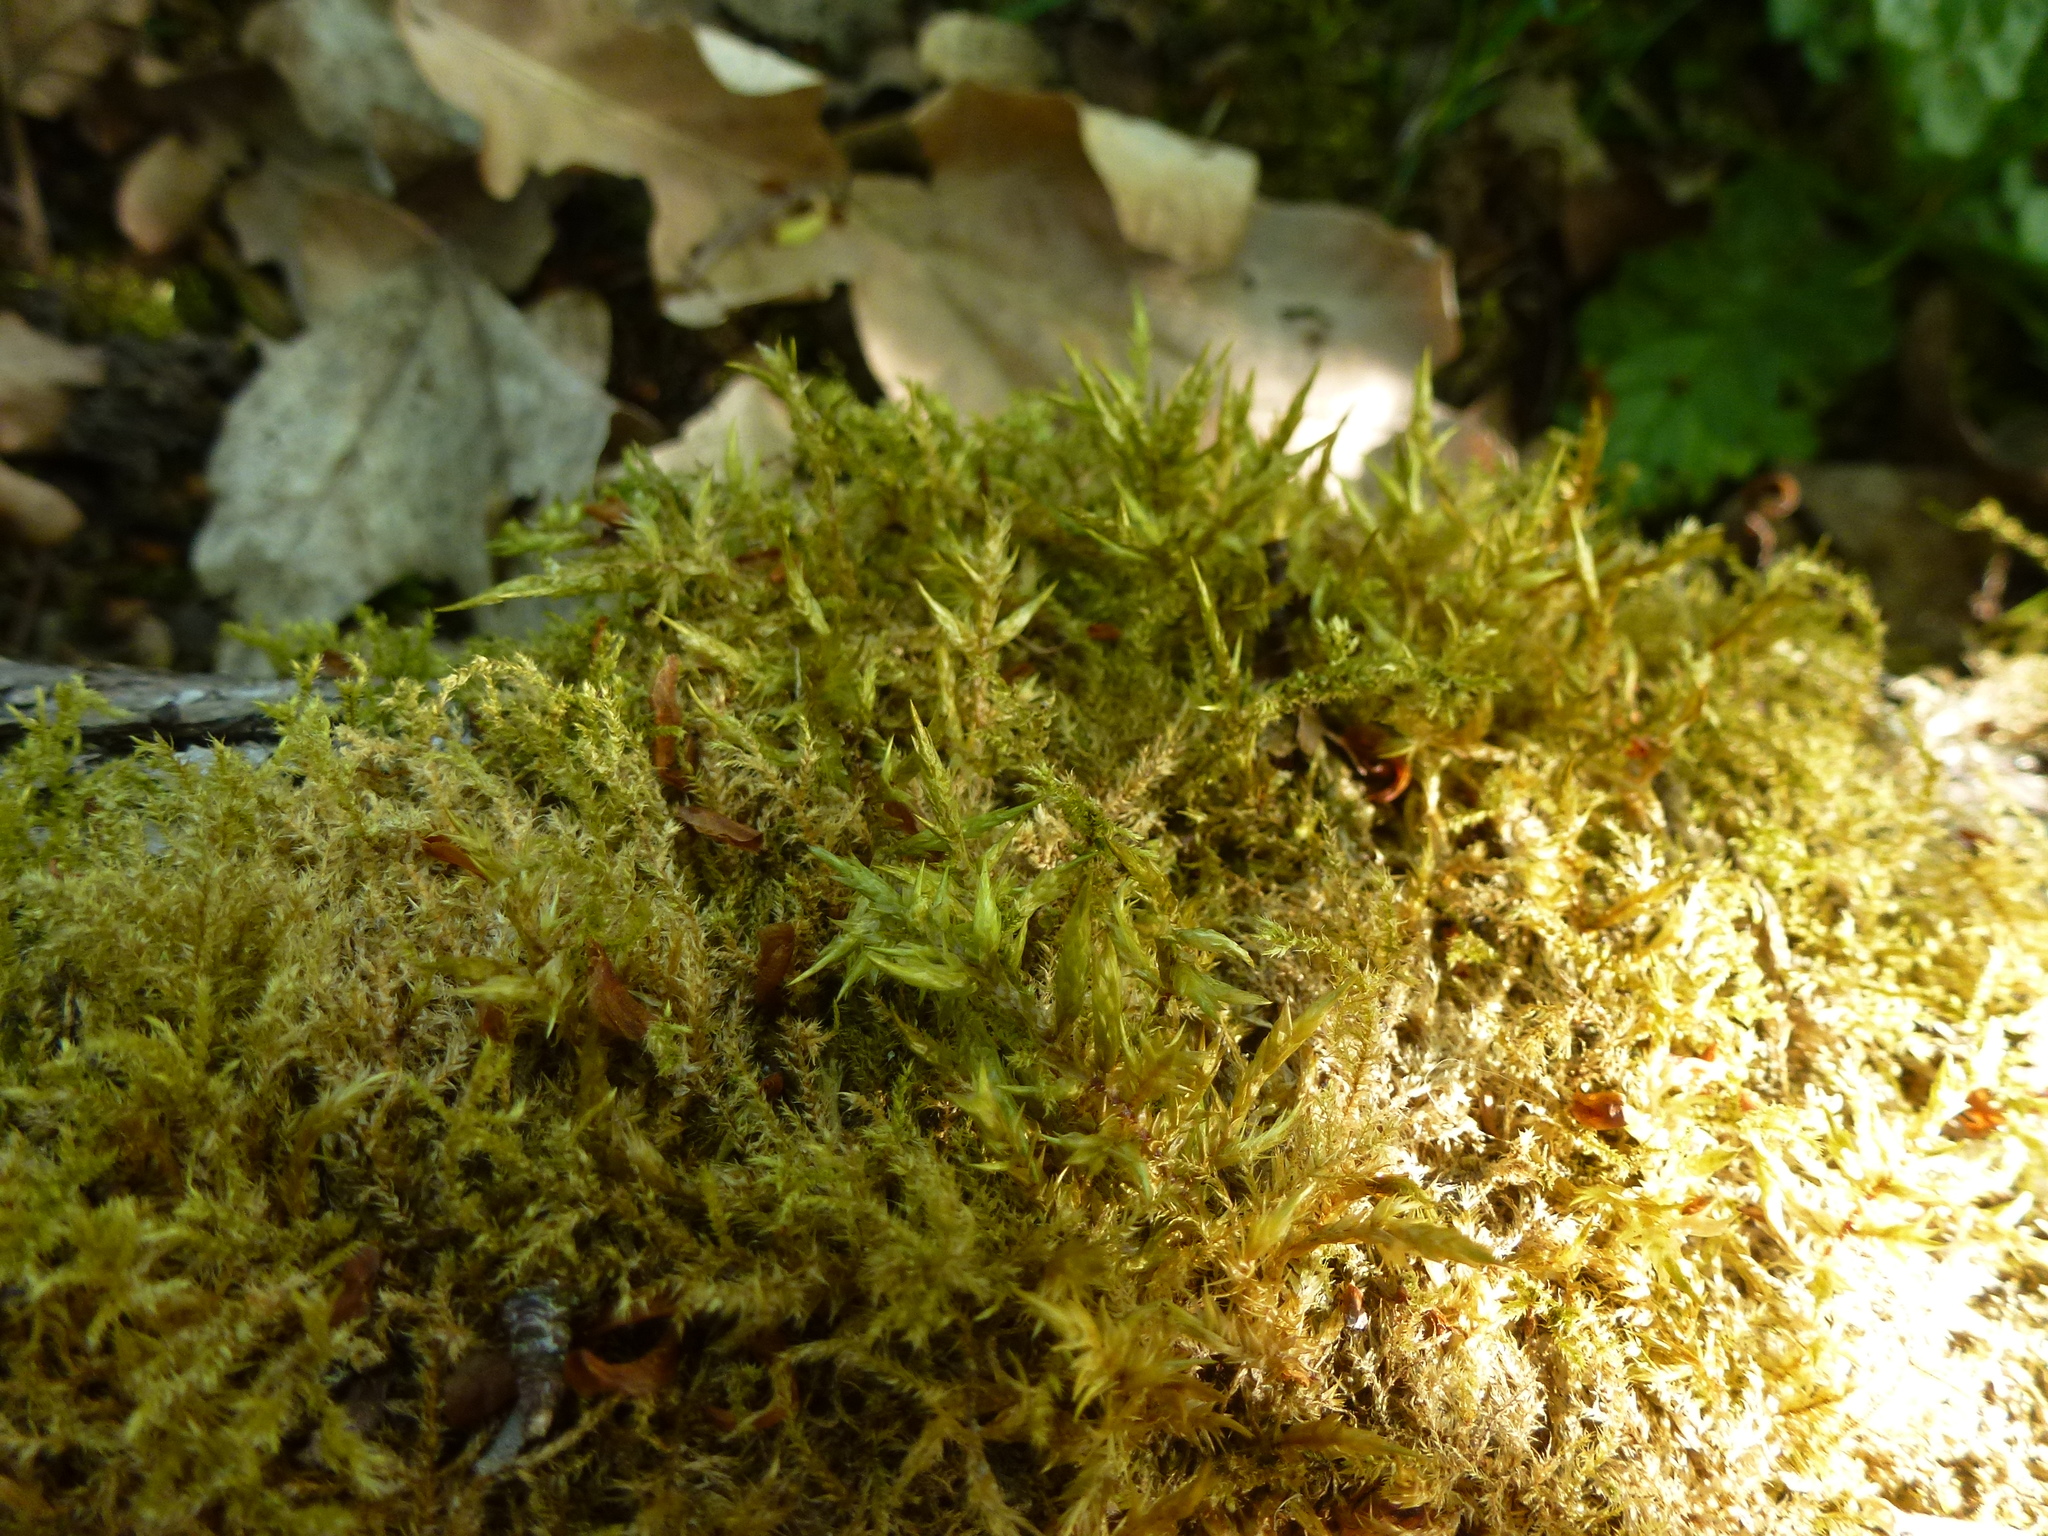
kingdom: Plantae
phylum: Bryophyta
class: Bryopsida
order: Hypnales
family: Pylaisiaceae
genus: Calliergonella
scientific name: Calliergonella cuspidata
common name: Common large wetland moss
